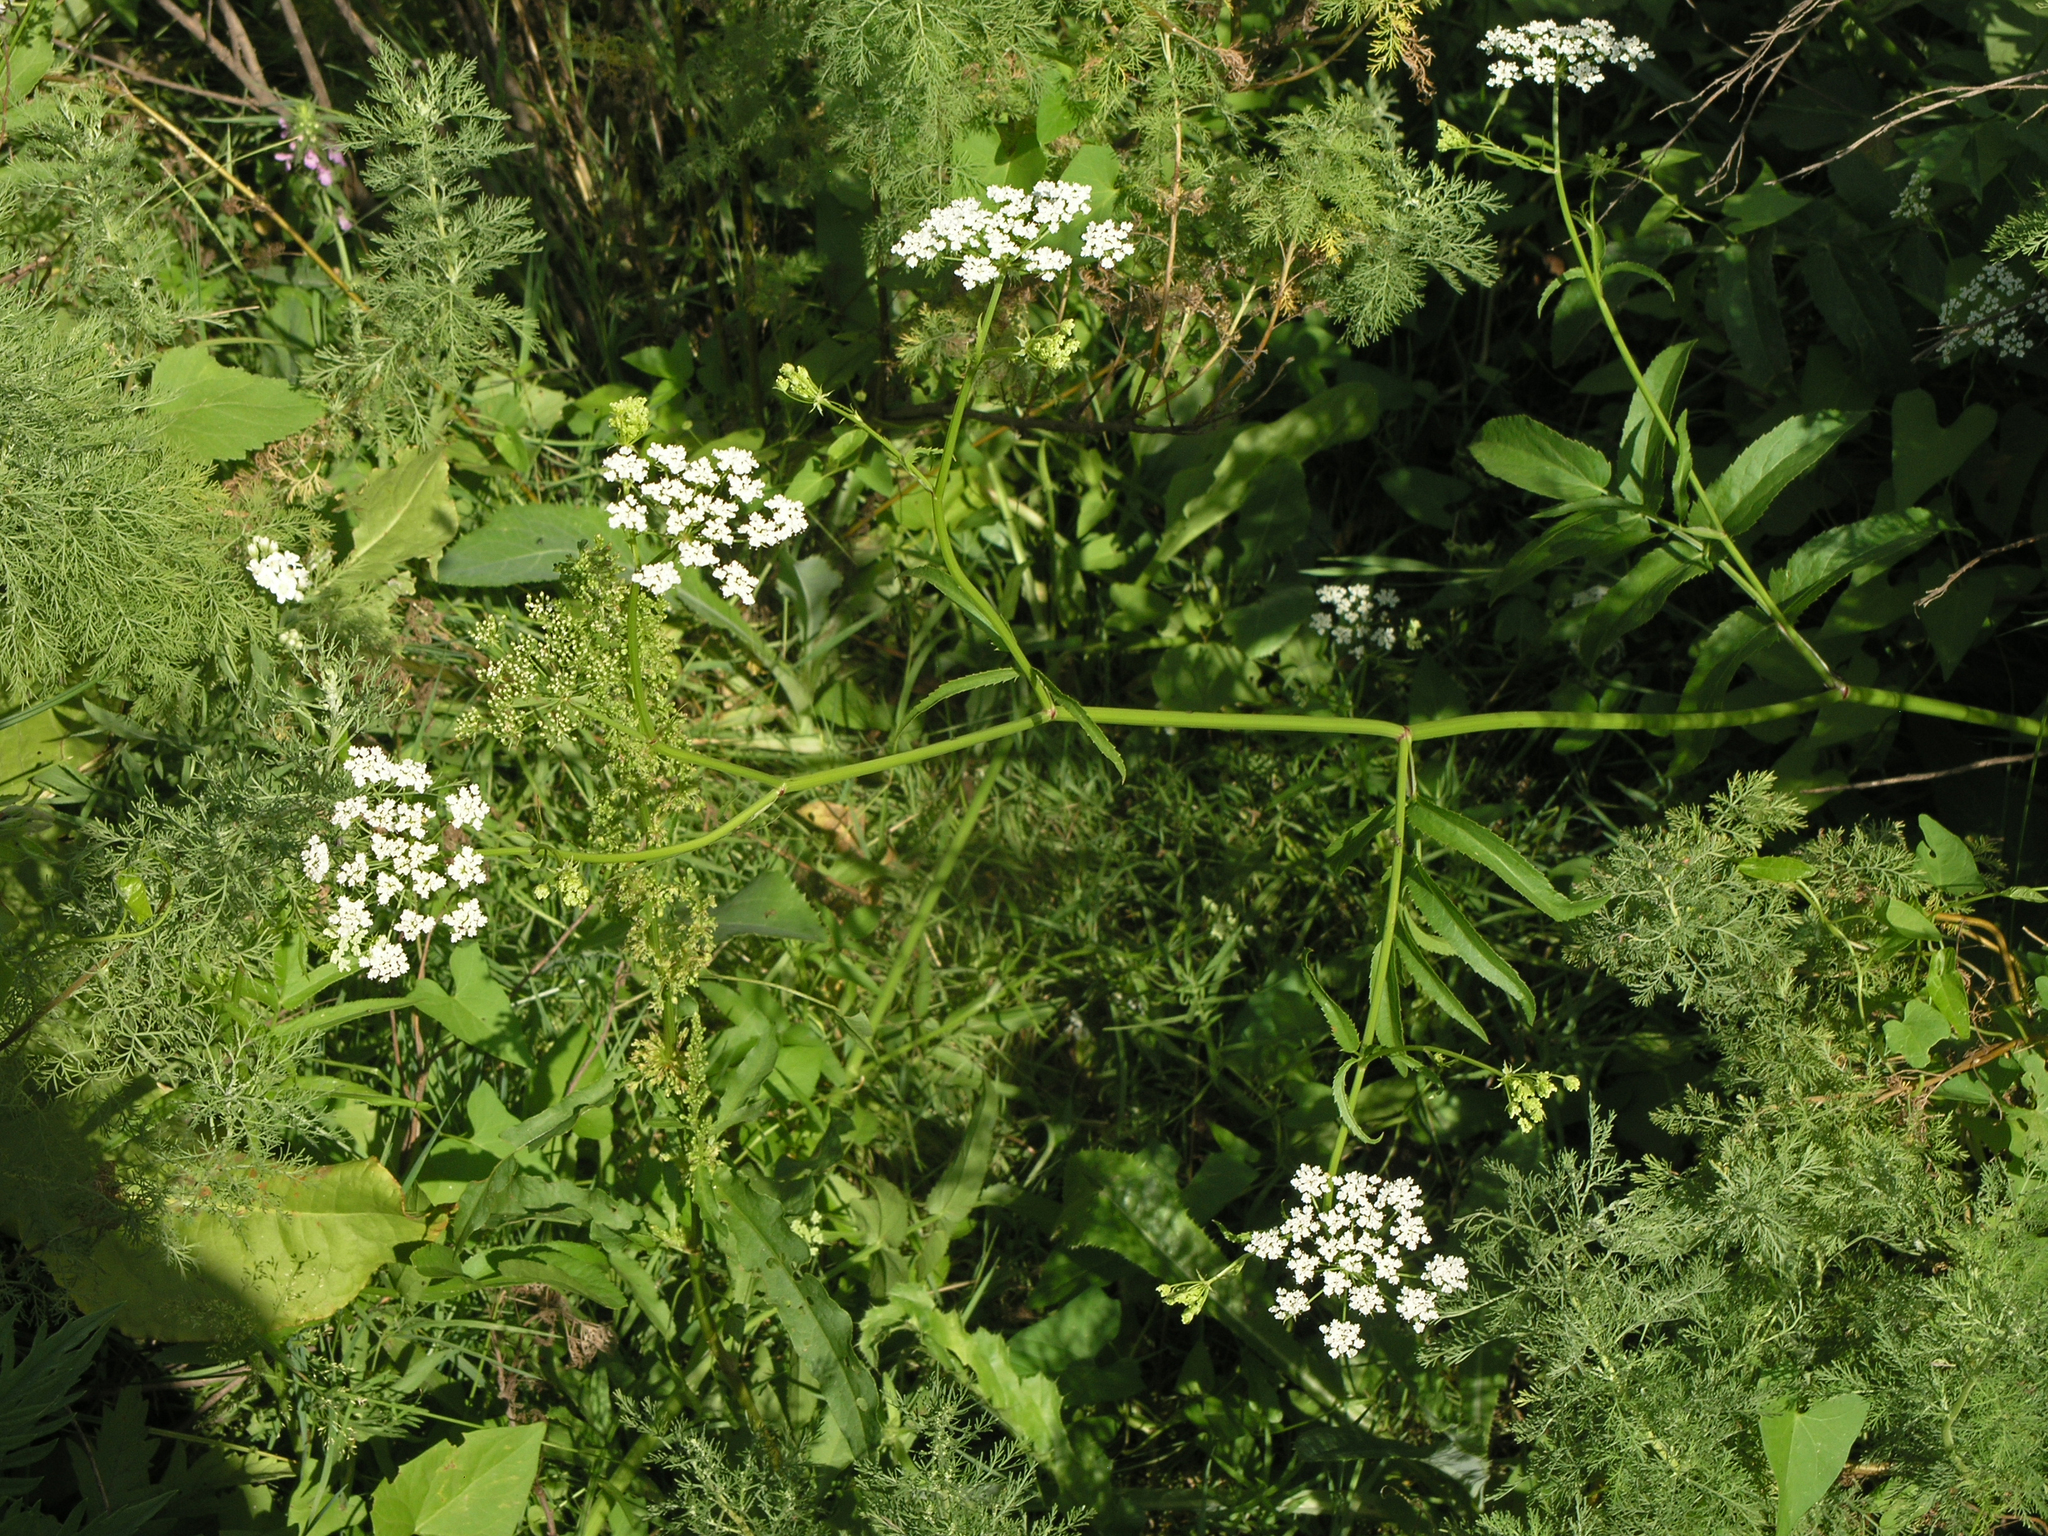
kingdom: Plantae
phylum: Tracheophyta
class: Magnoliopsida
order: Apiales
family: Apiaceae
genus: Sium
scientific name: Sium latifolium
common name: Greater water-parsnip
